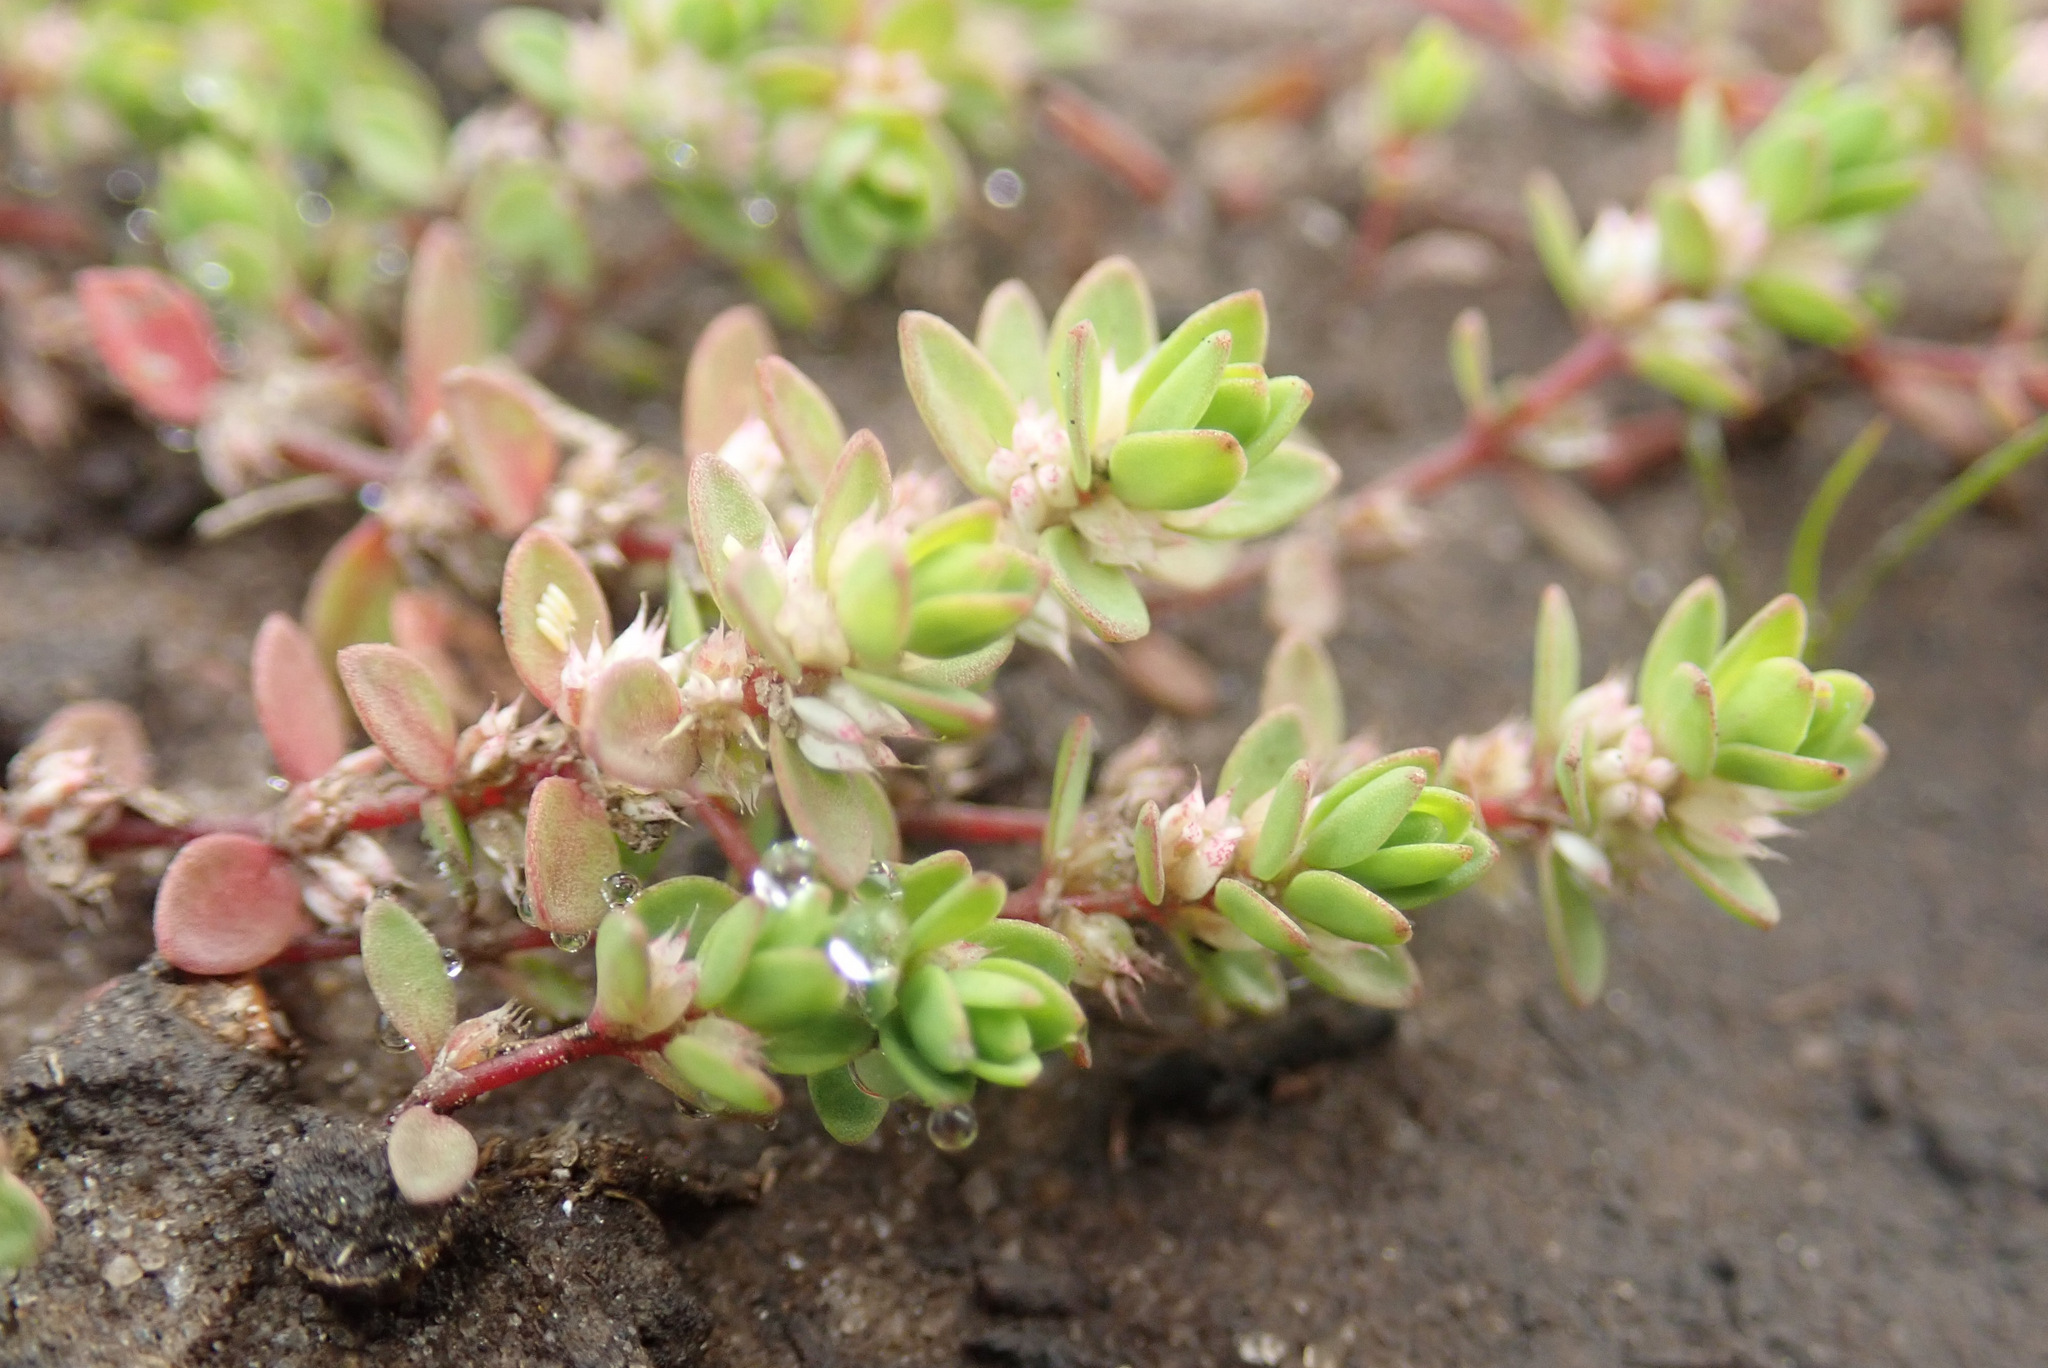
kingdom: Plantae
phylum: Tracheophyta
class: Magnoliopsida
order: Caryophyllales
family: Caryophyllaceae
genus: Illecebrum
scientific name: Illecebrum verticillatum
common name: Coral necklace
